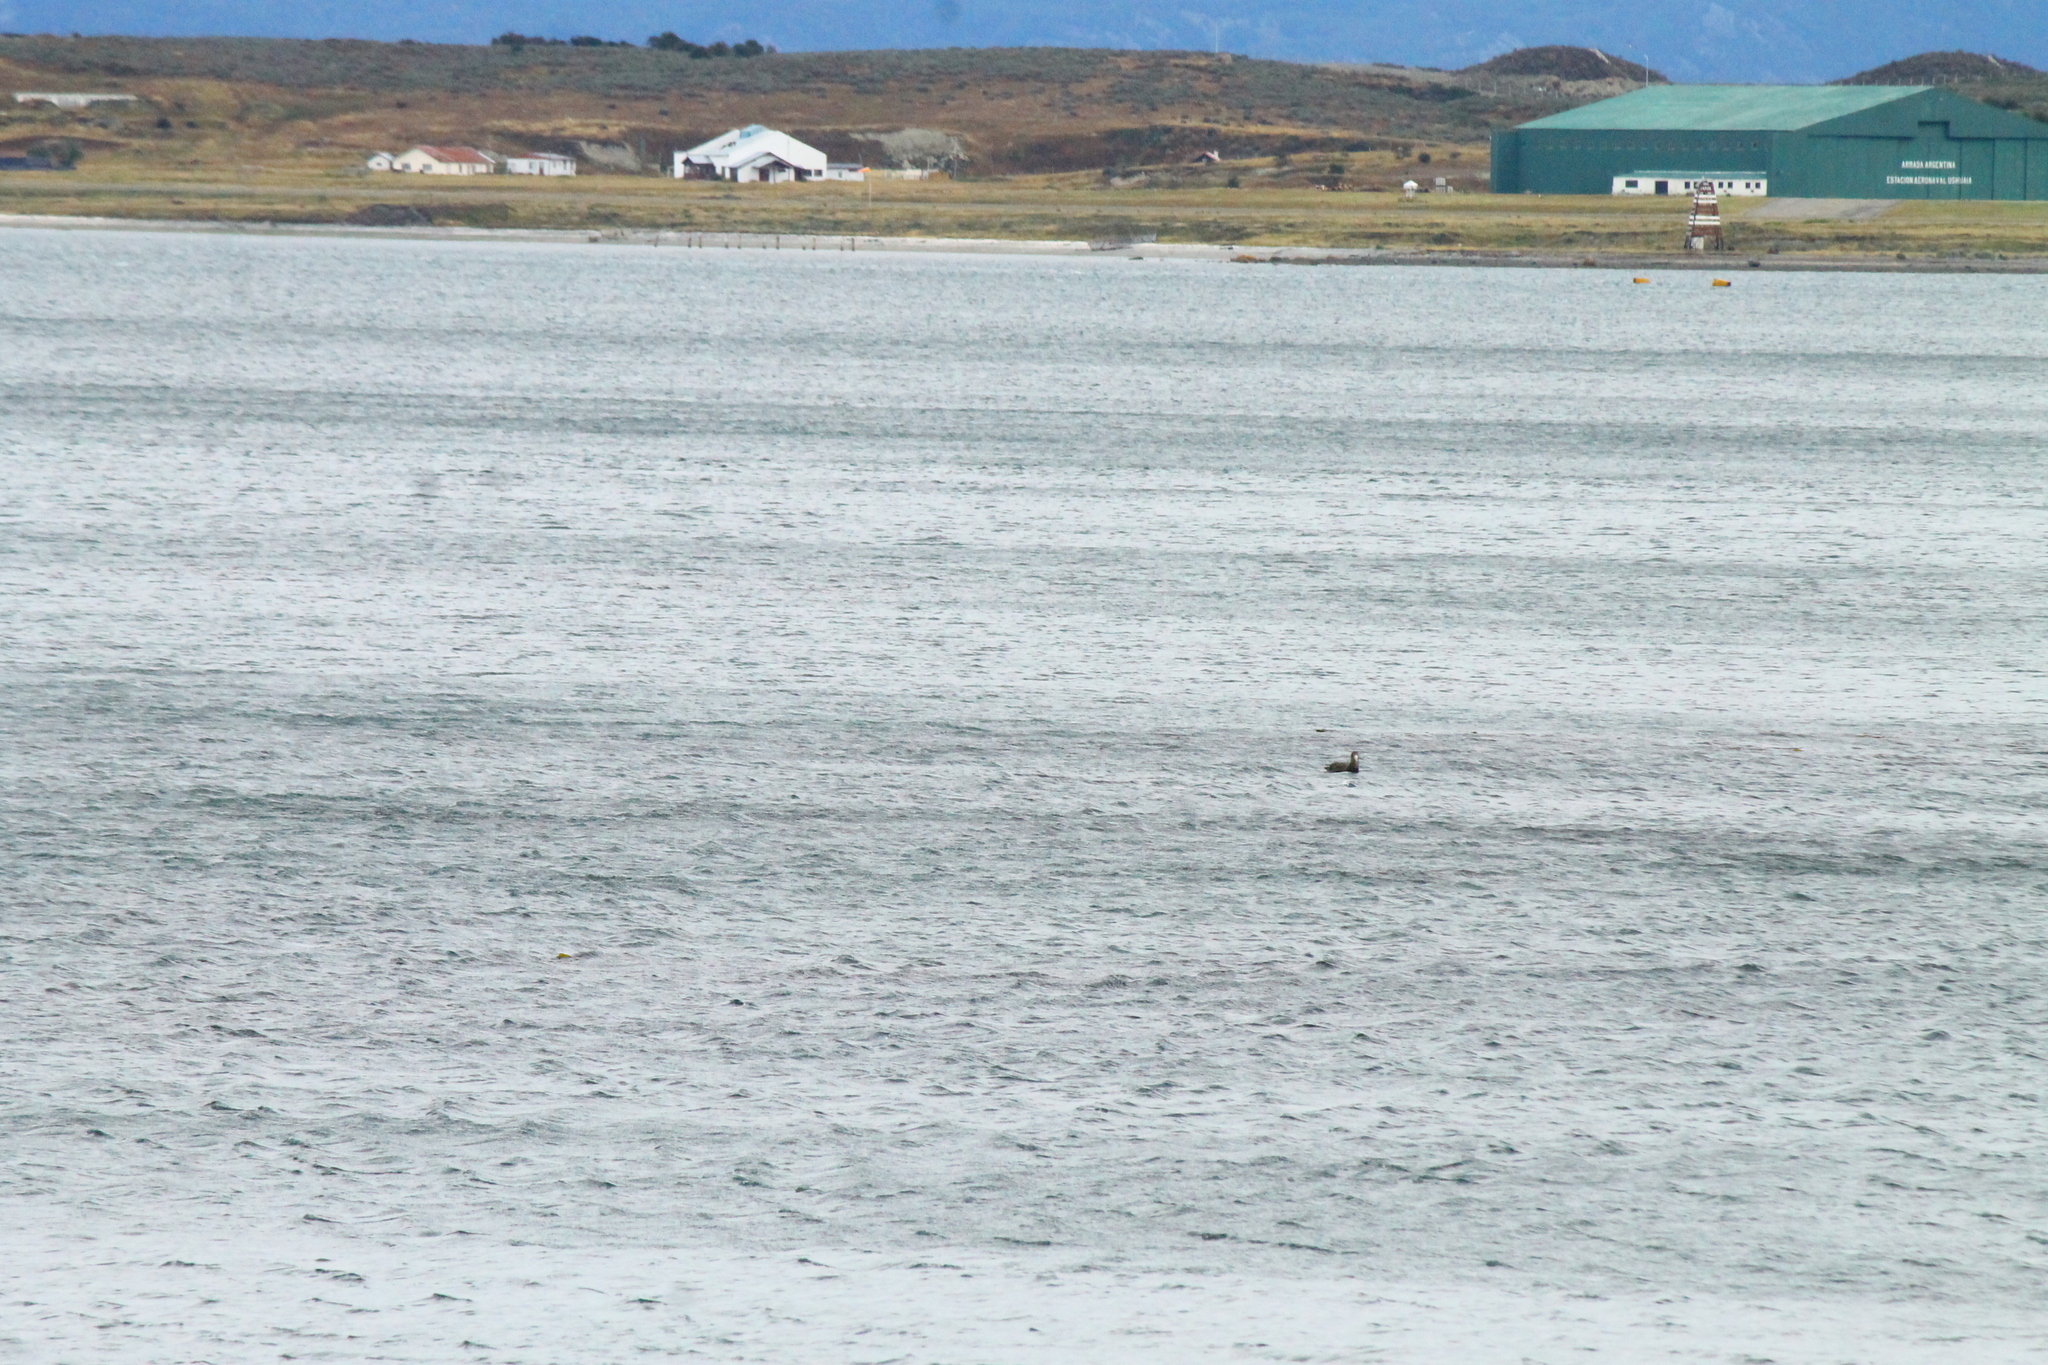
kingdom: Animalia
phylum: Chordata
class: Aves
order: Procellariiformes
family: Procellariidae
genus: Macronectes
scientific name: Macronectes giganteus
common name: Southern giant petrel
